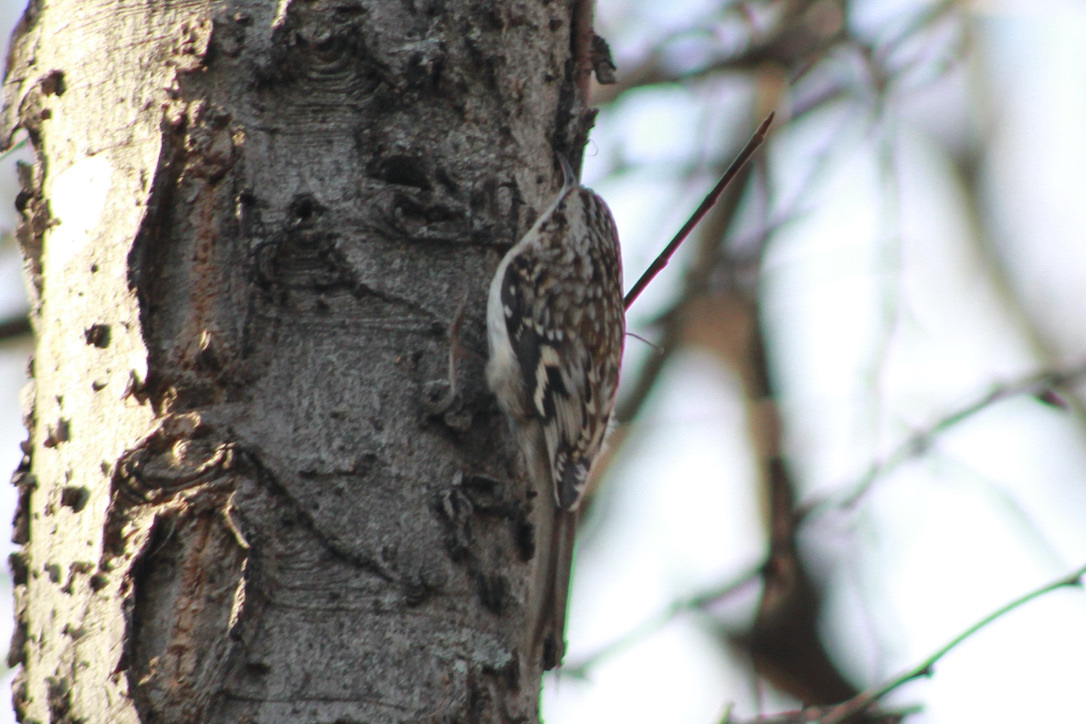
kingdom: Animalia
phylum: Chordata
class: Aves
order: Passeriformes
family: Certhiidae
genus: Certhia
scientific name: Certhia americana
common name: Brown creeper
